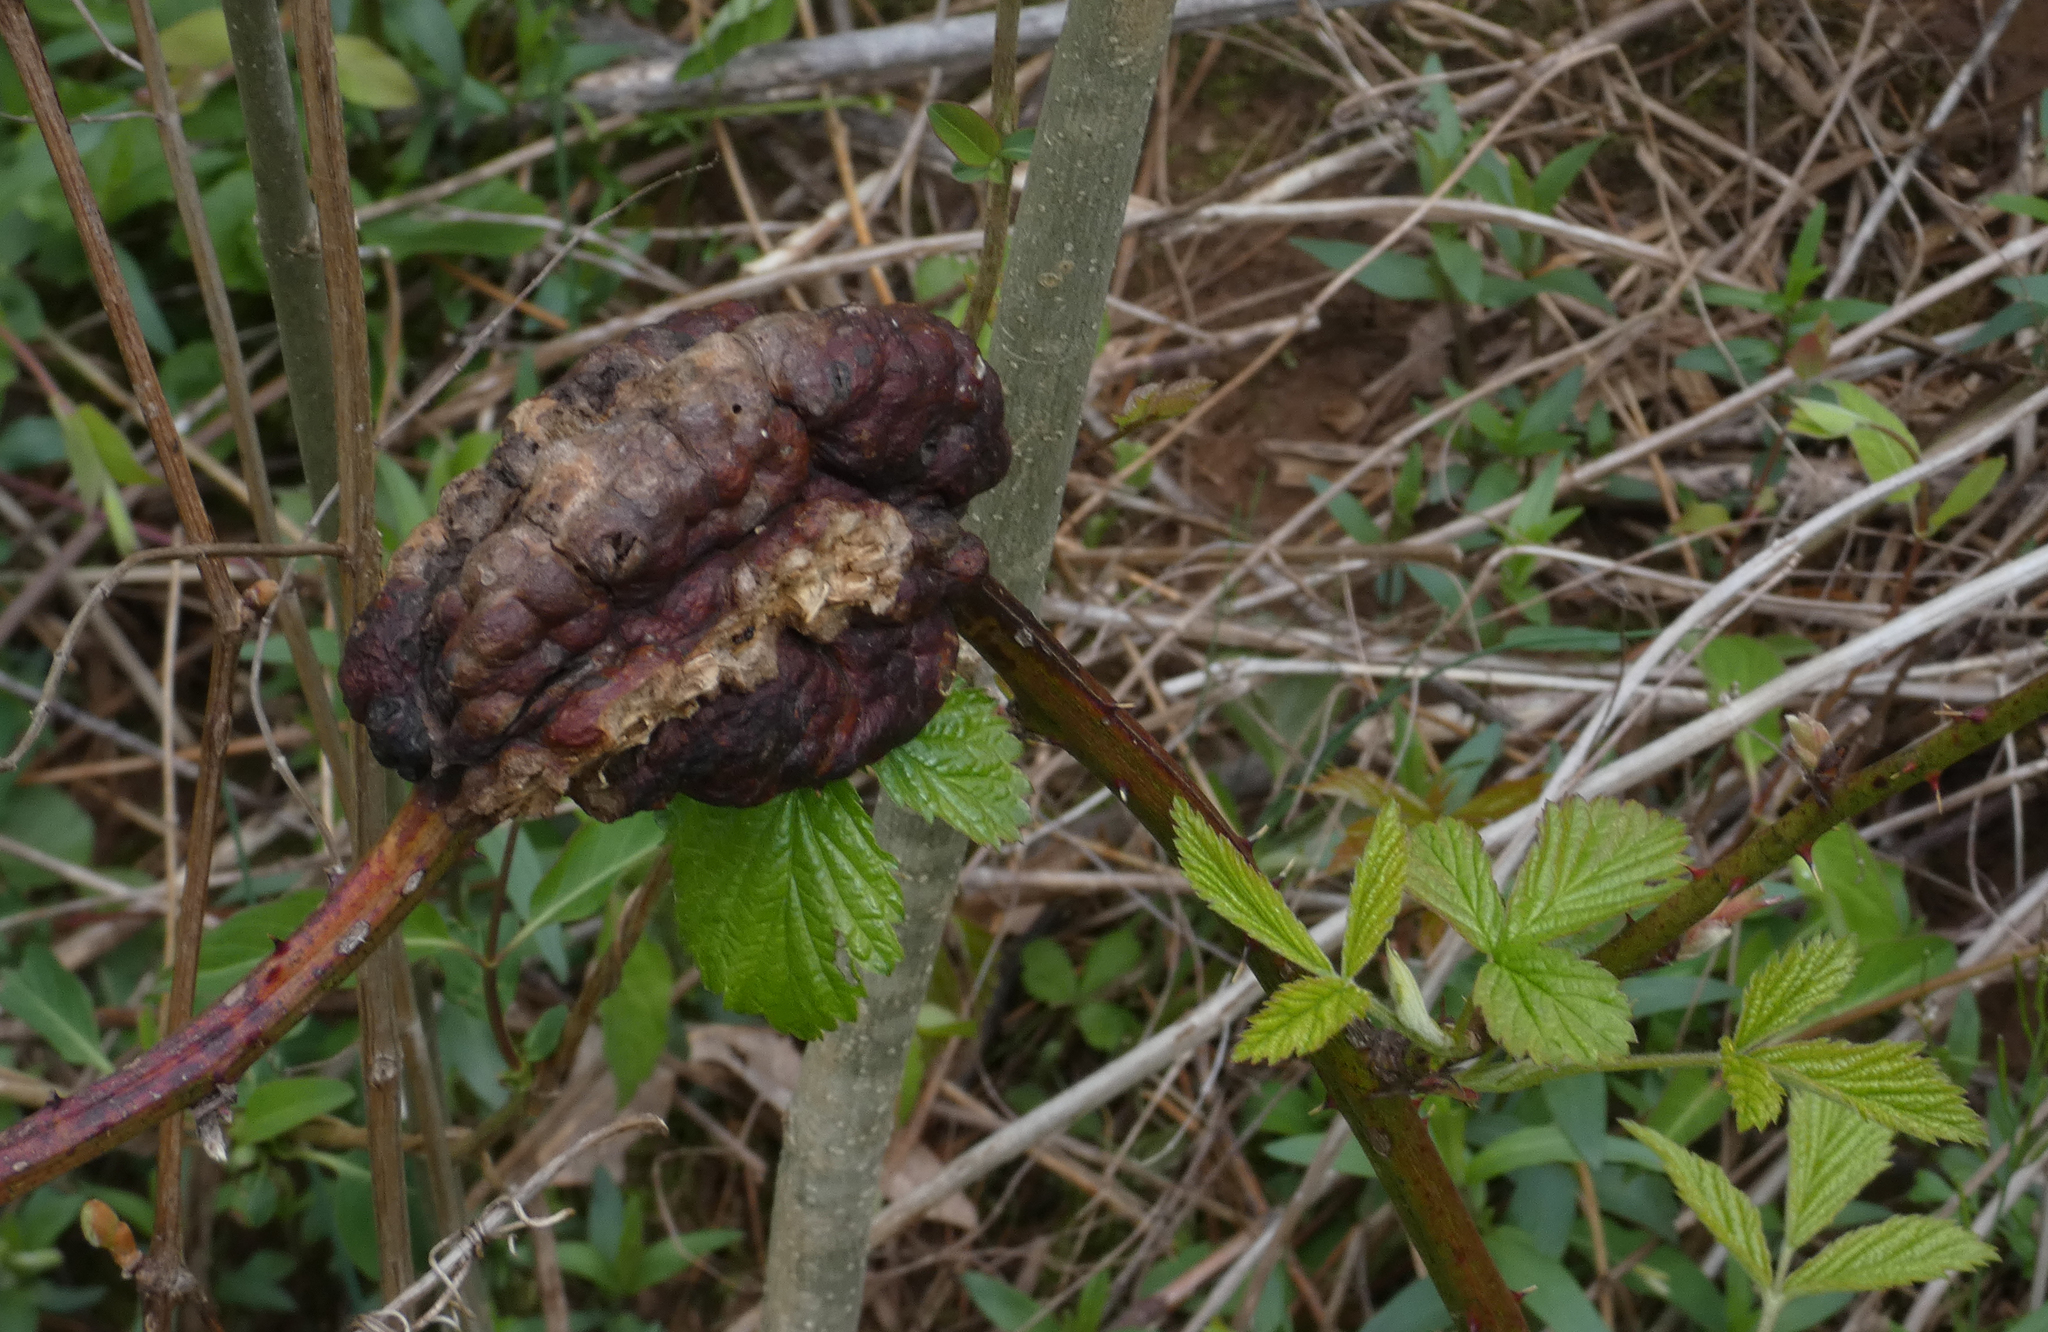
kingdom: Animalia
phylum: Arthropoda
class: Insecta
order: Hymenoptera
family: Cynipidae
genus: Diastrophus
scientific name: Diastrophus
